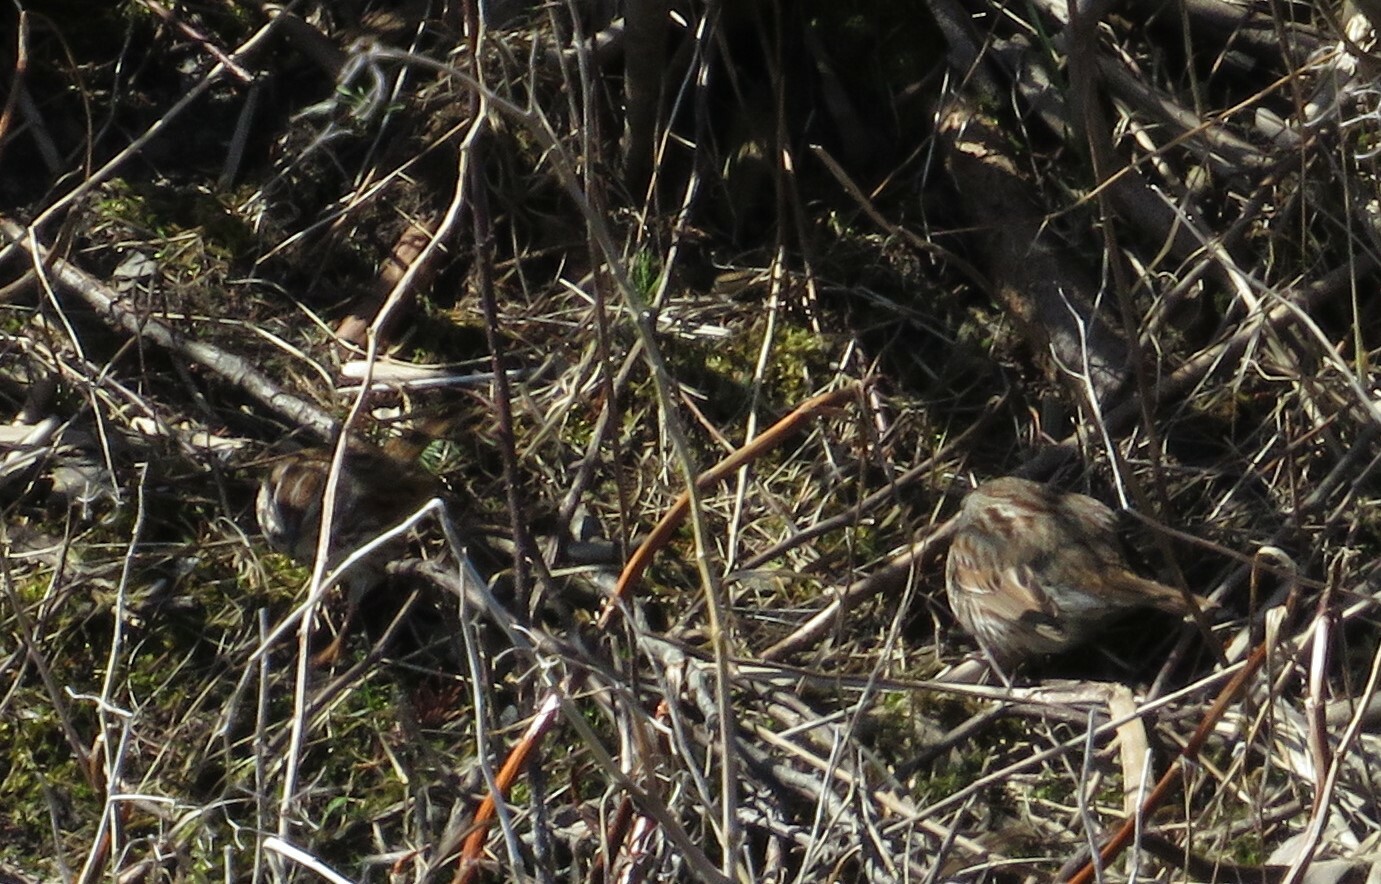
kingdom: Animalia
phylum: Chordata
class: Aves
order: Passeriformes
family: Passerellidae
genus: Melospiza
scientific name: Melospiza melodia
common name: Song sparrow
